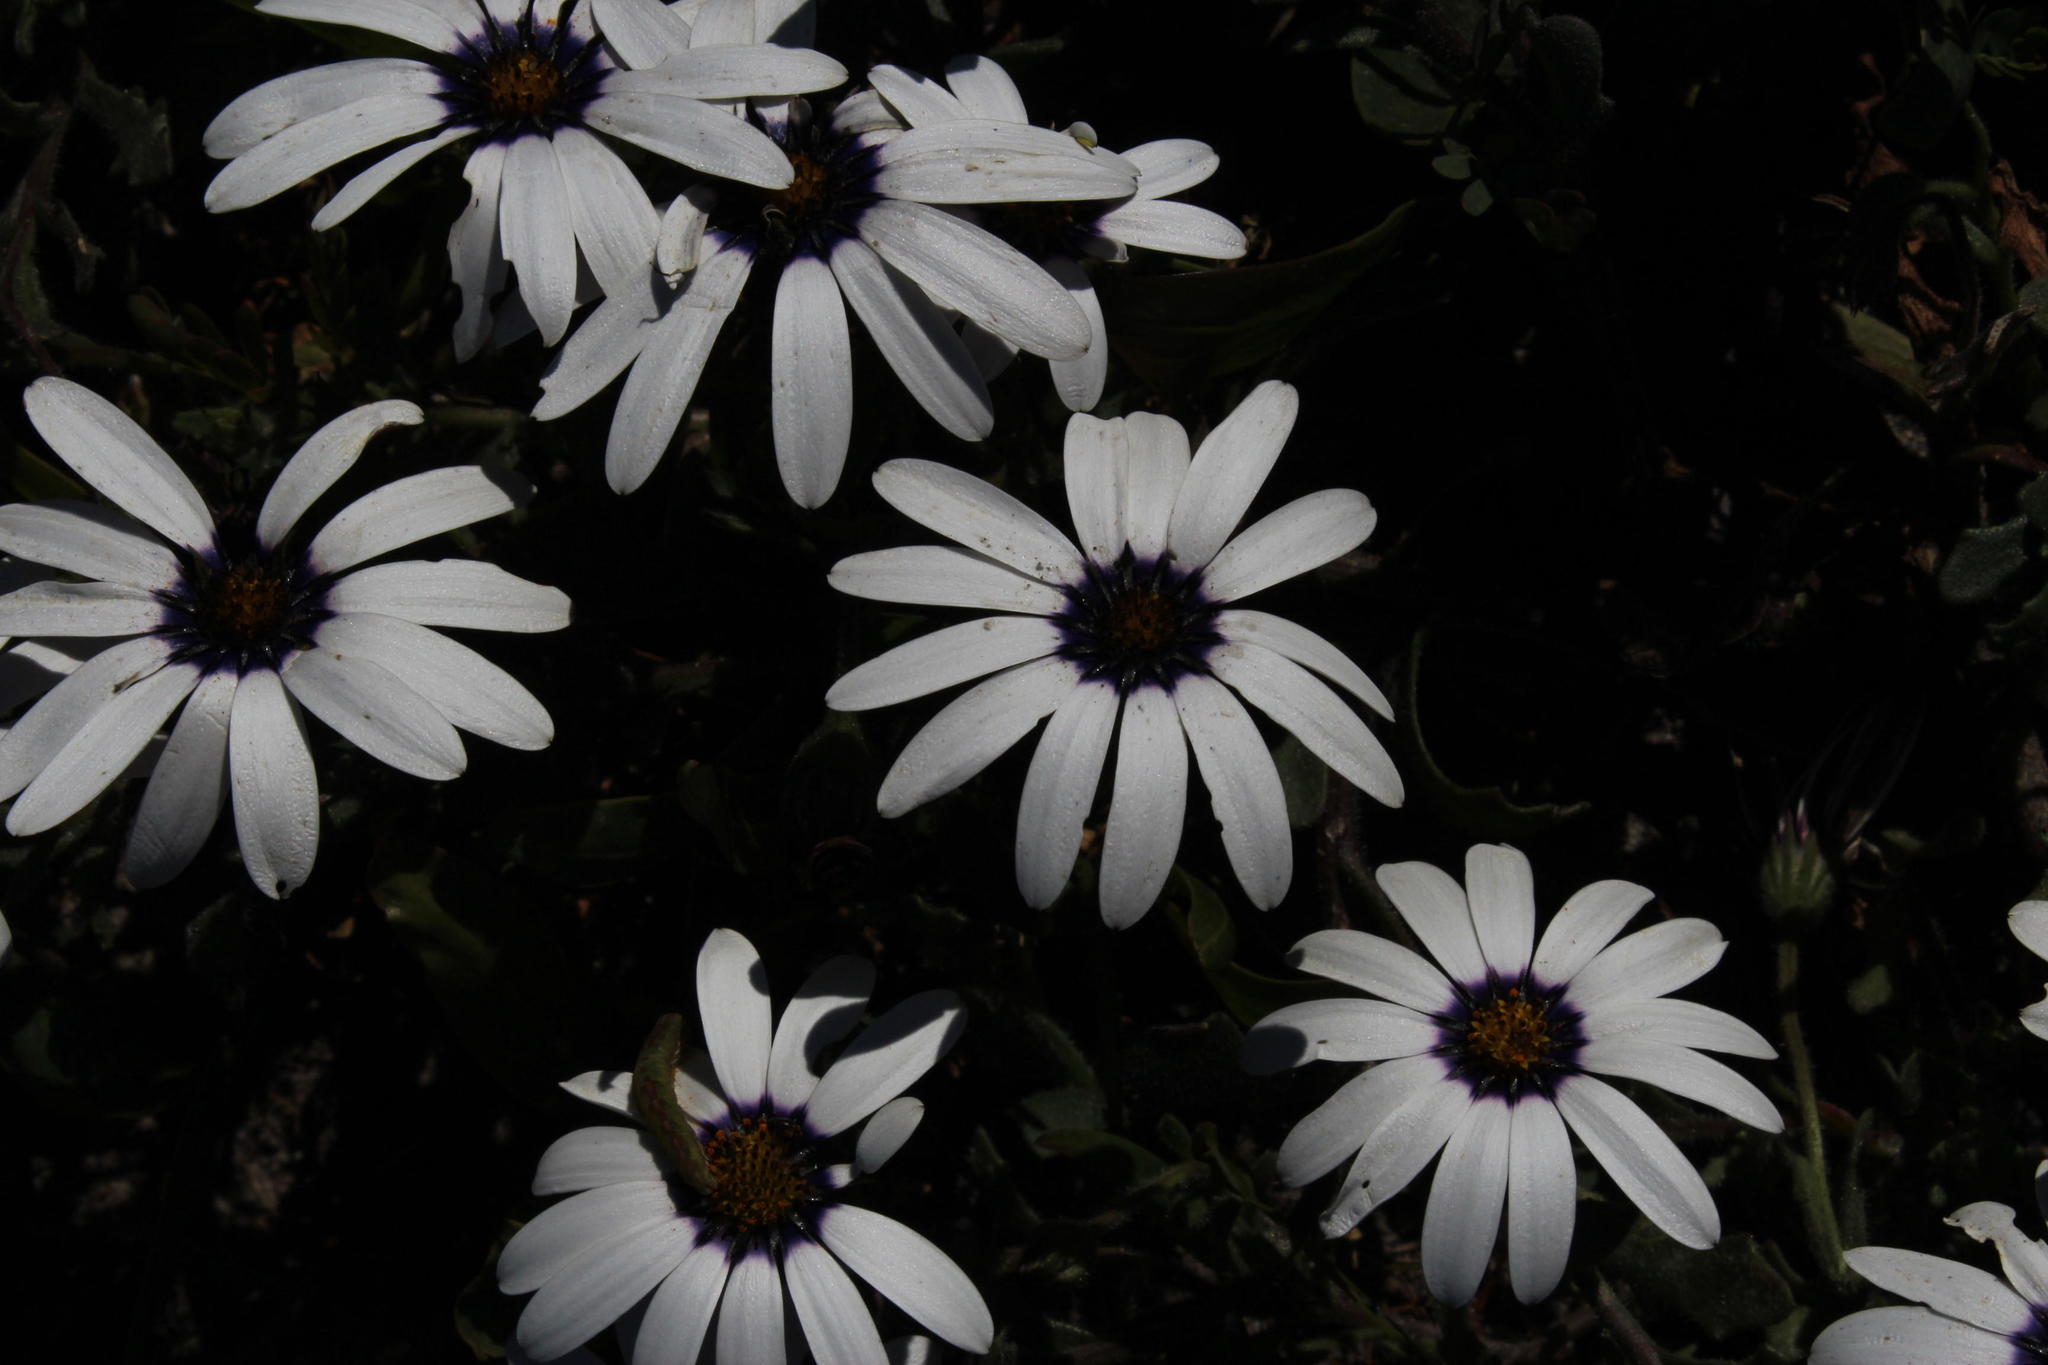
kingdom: Plantae
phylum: Tracheophyta
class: Magnoliopsida
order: Asterales
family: Asteraceae
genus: Dimorphotheca
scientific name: Dimorphotheca pluvialis
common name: Weather prophet
